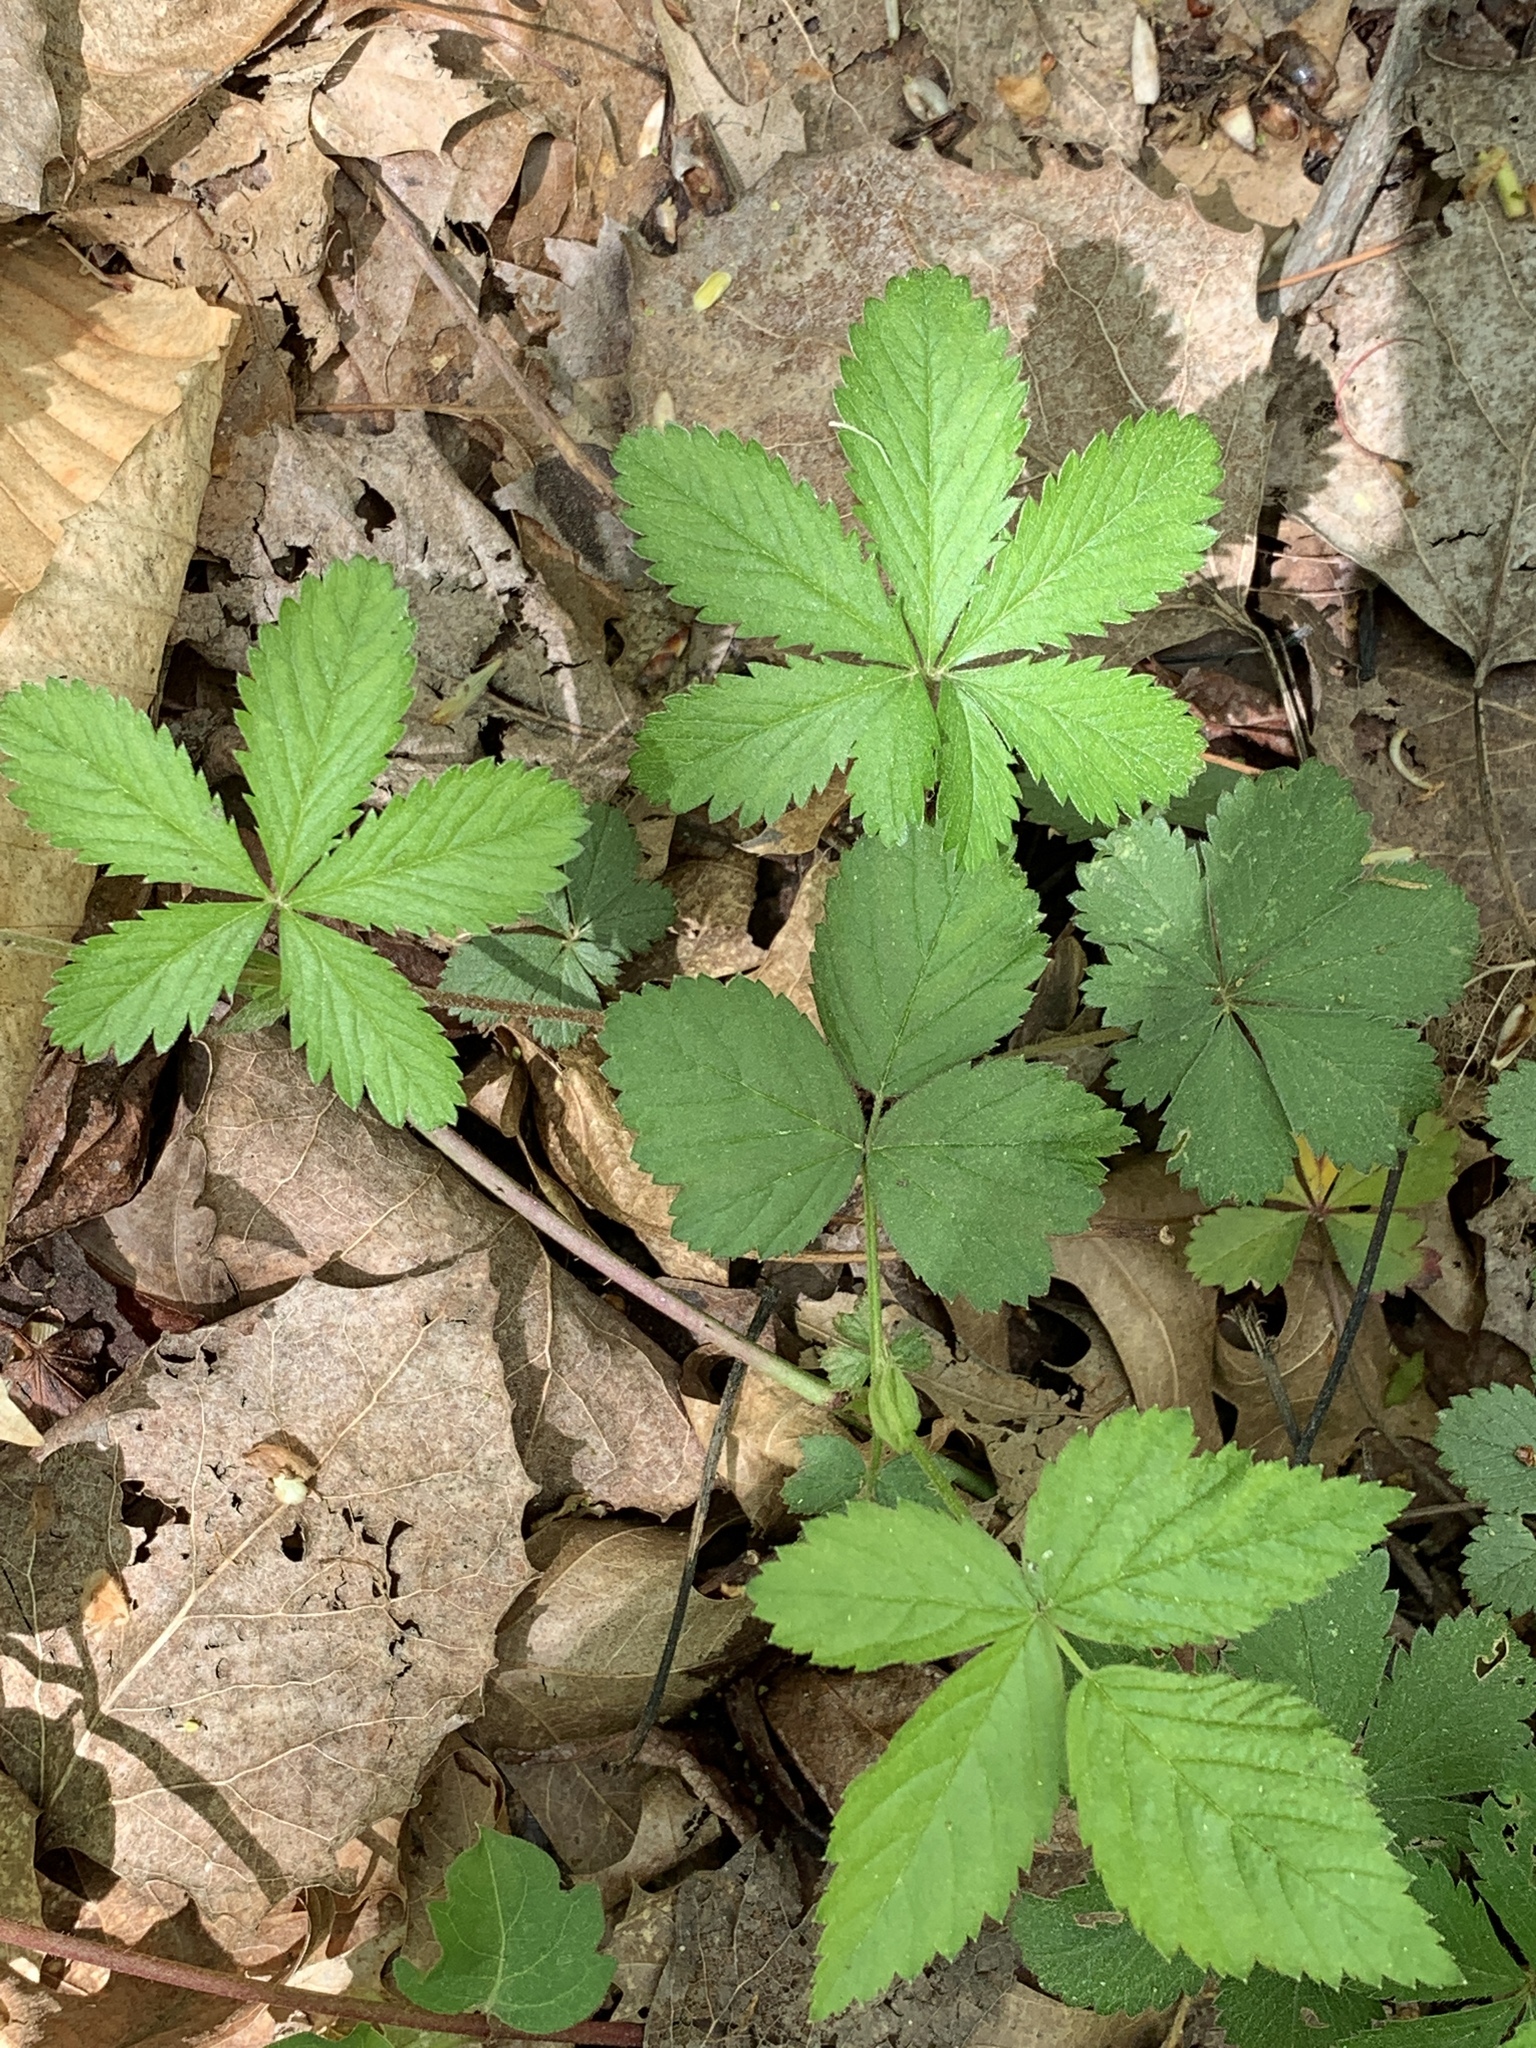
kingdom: Plantae
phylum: Tracheophyta
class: Magnoliopsida
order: Rosales
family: Rosaceae
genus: Potentilla
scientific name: Potentilla canadensis
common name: Canada cinquefoil
